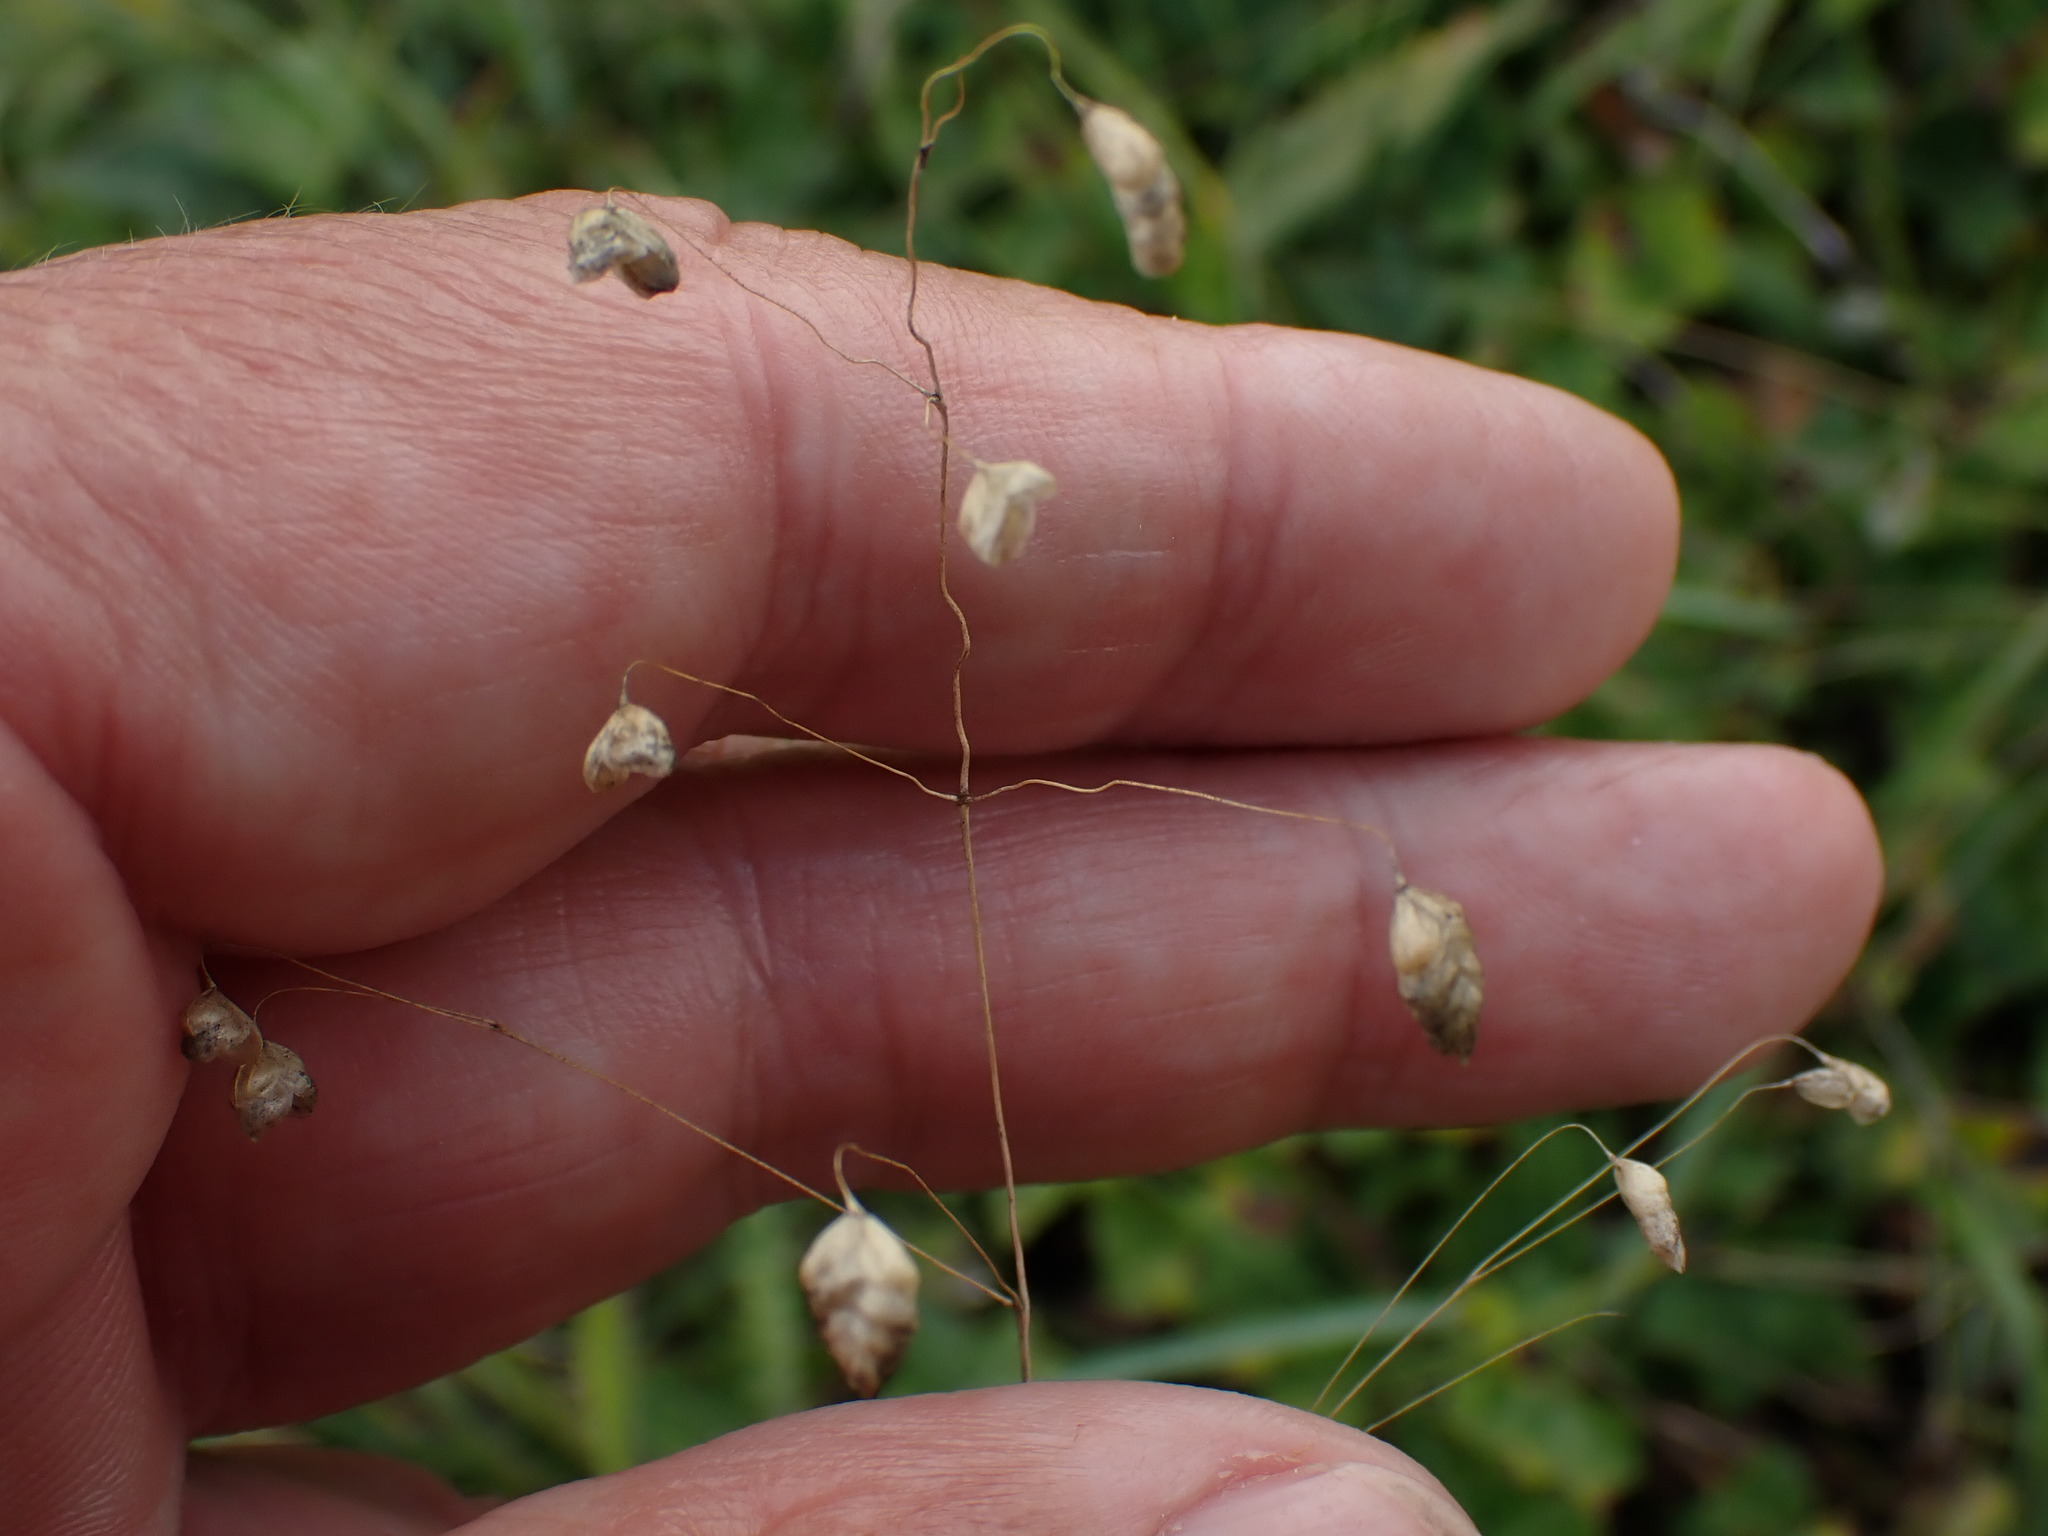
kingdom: Plantae
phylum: Tracheophyta
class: Liliopsida
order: Poales
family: Poaceae
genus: Briza
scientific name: Briza media
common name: Quaking grass
